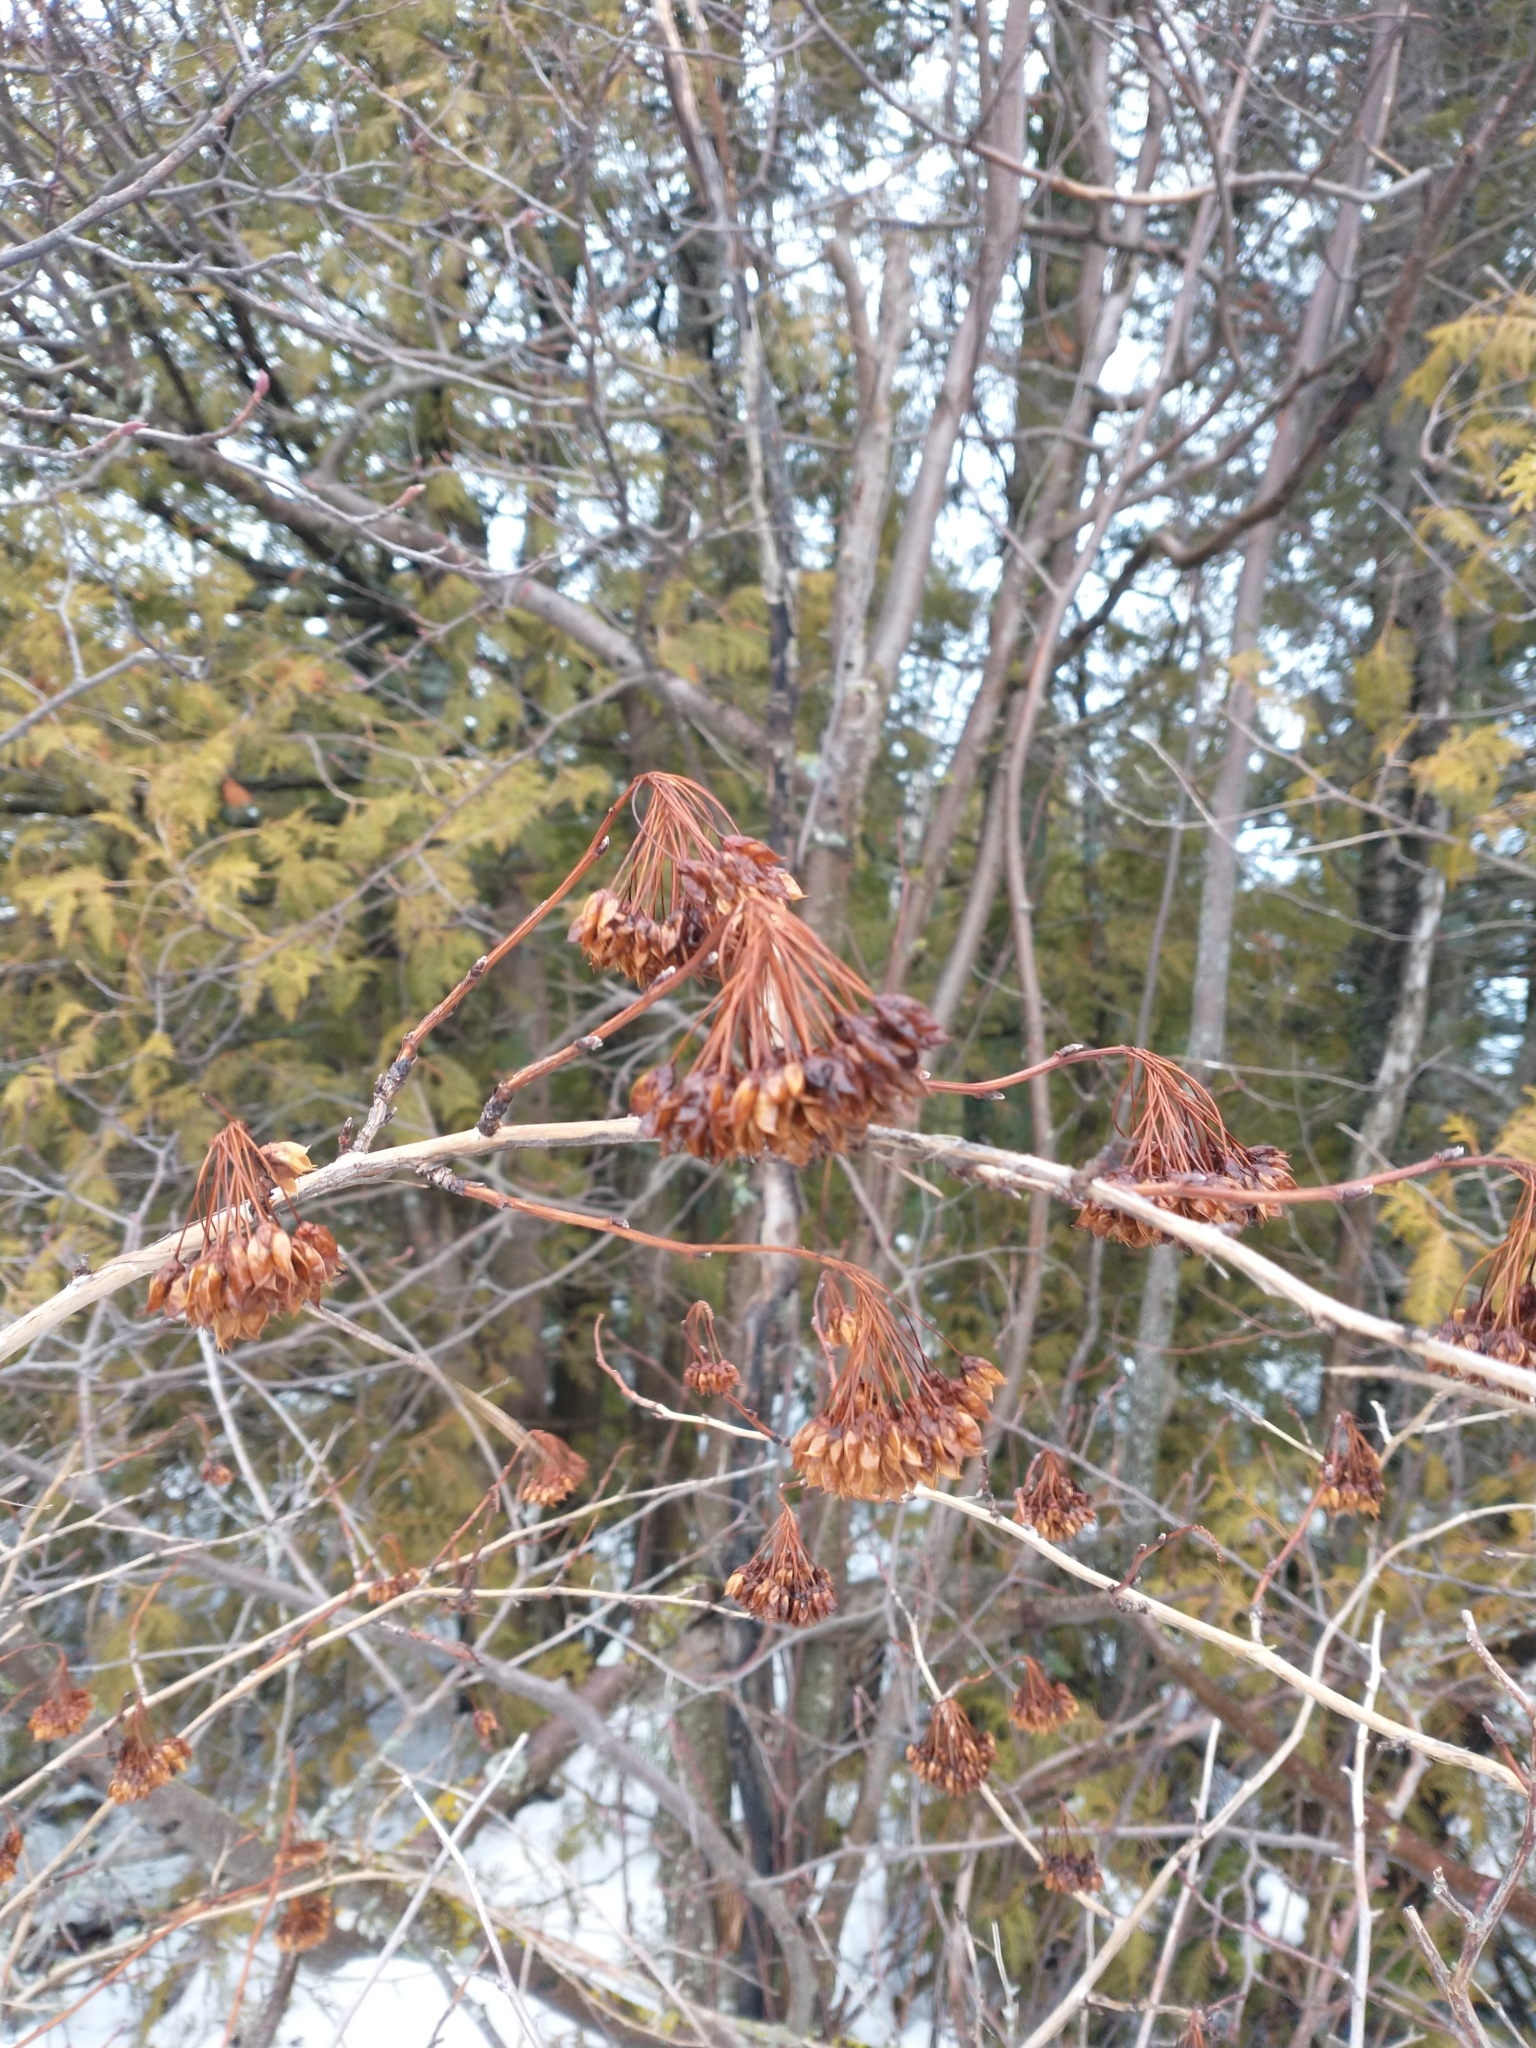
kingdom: Plantae
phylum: Tracheophyta
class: Magnoliopsida
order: Rosales
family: Rosaceae
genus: Physocarpus
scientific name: Physocarpus opulifolius
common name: Ninebark
